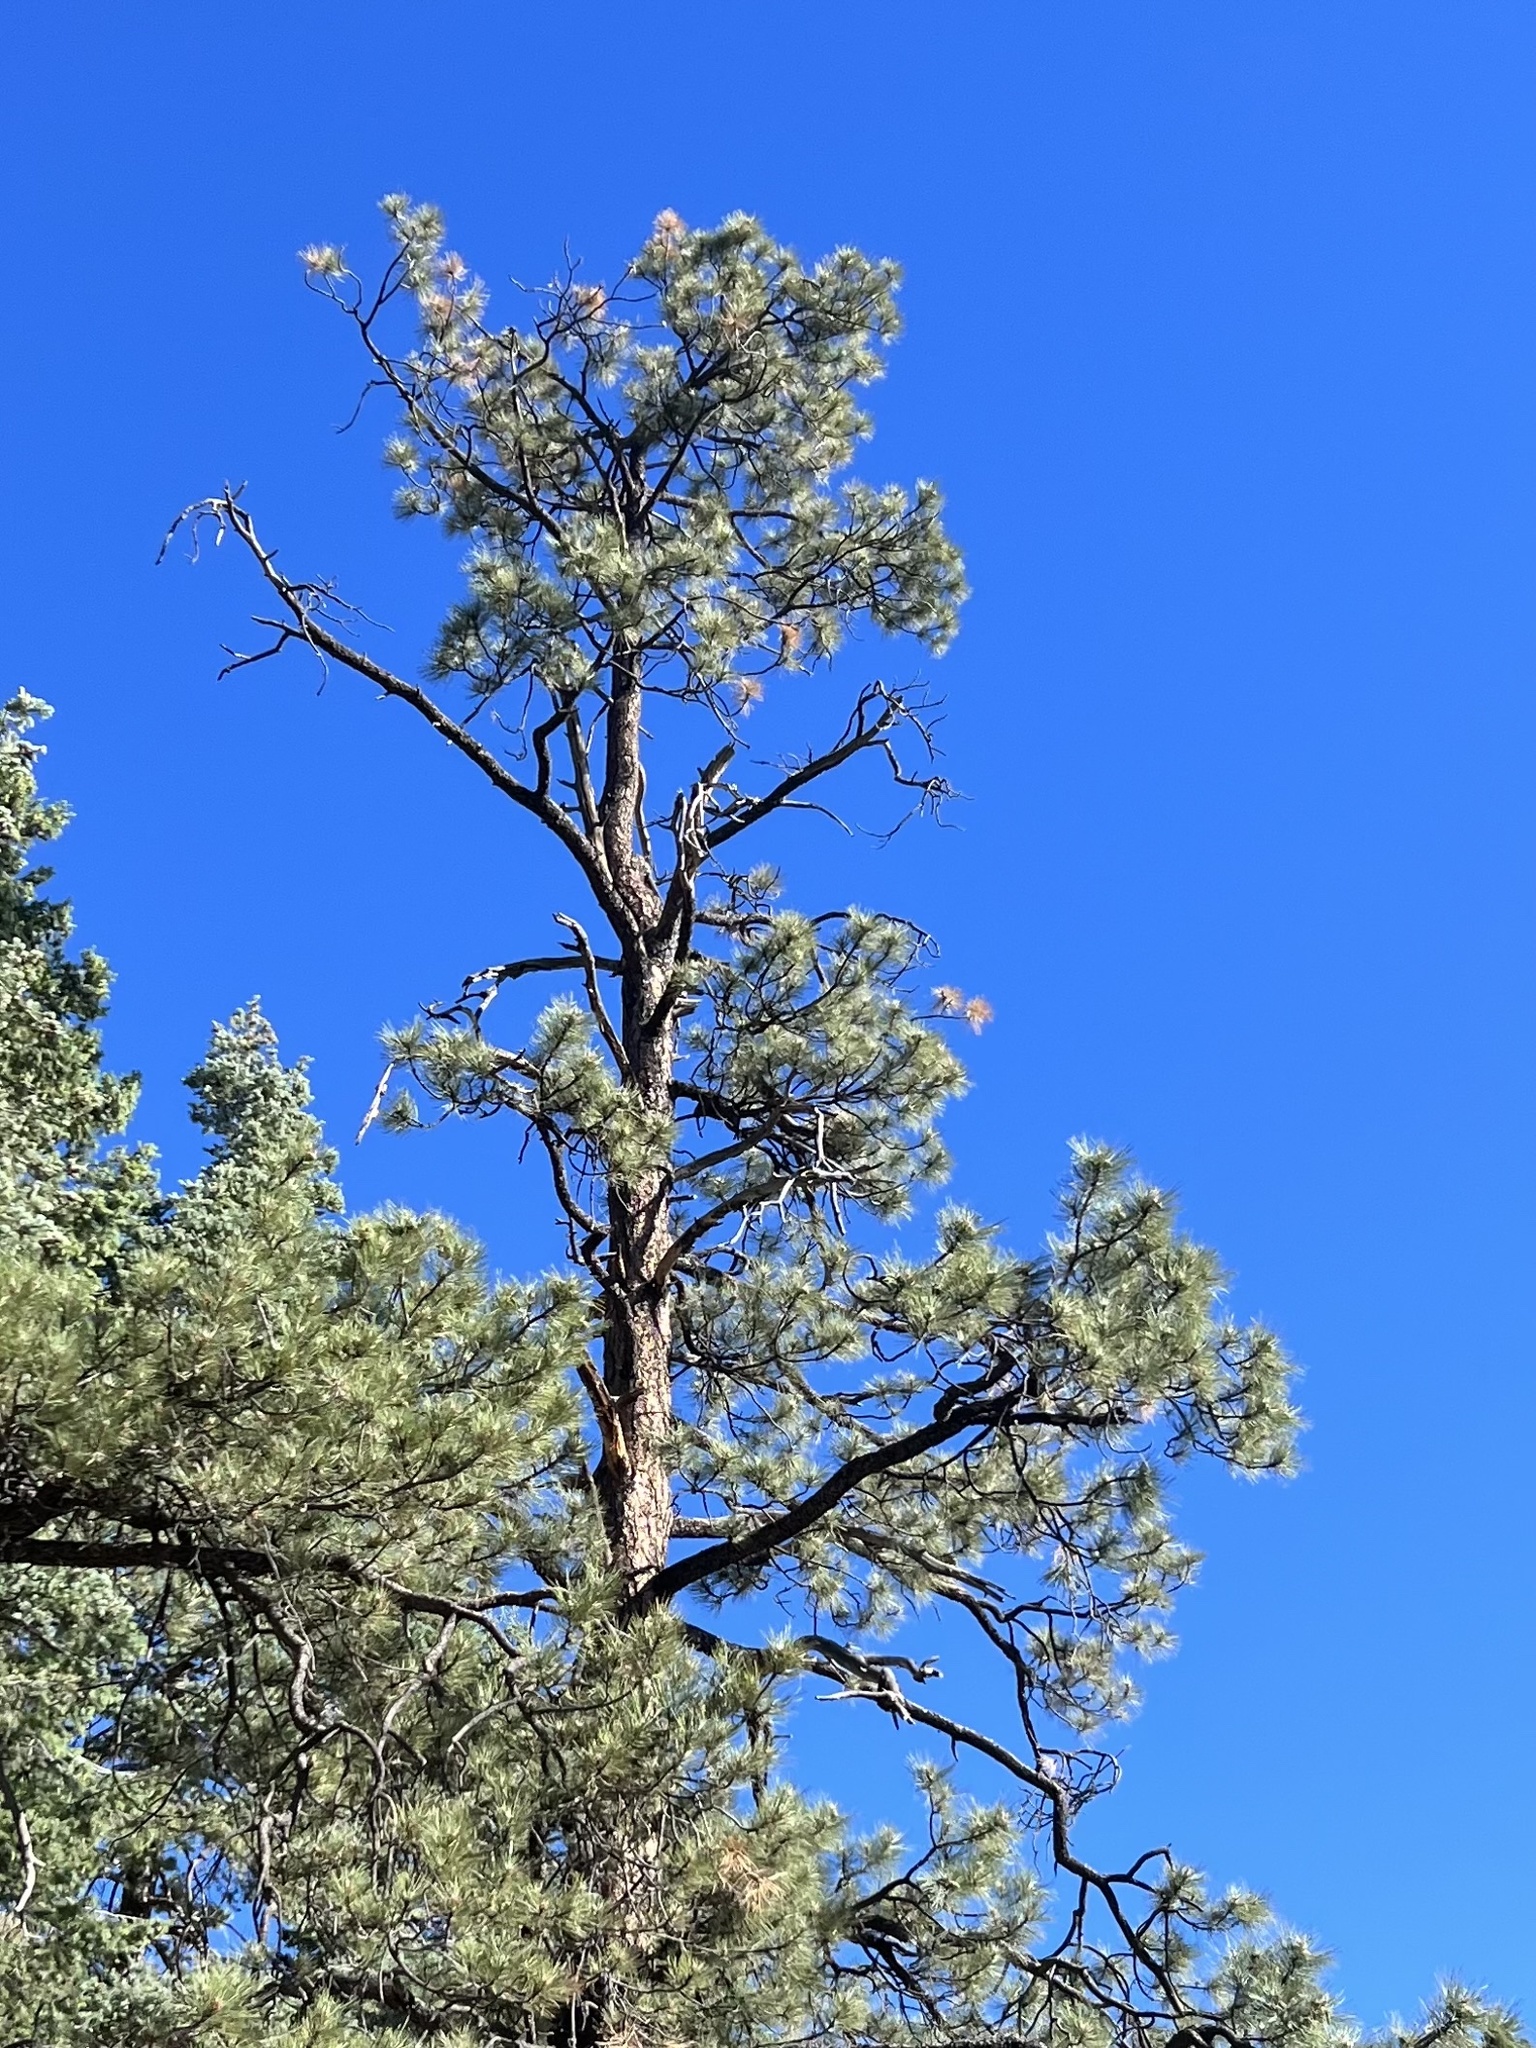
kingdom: Plantae
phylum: Tracheophyta
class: Pinopsida
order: Pinales
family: Pinaceae
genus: Pinus
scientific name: Pinus ponderosa
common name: Western yellow-pine
